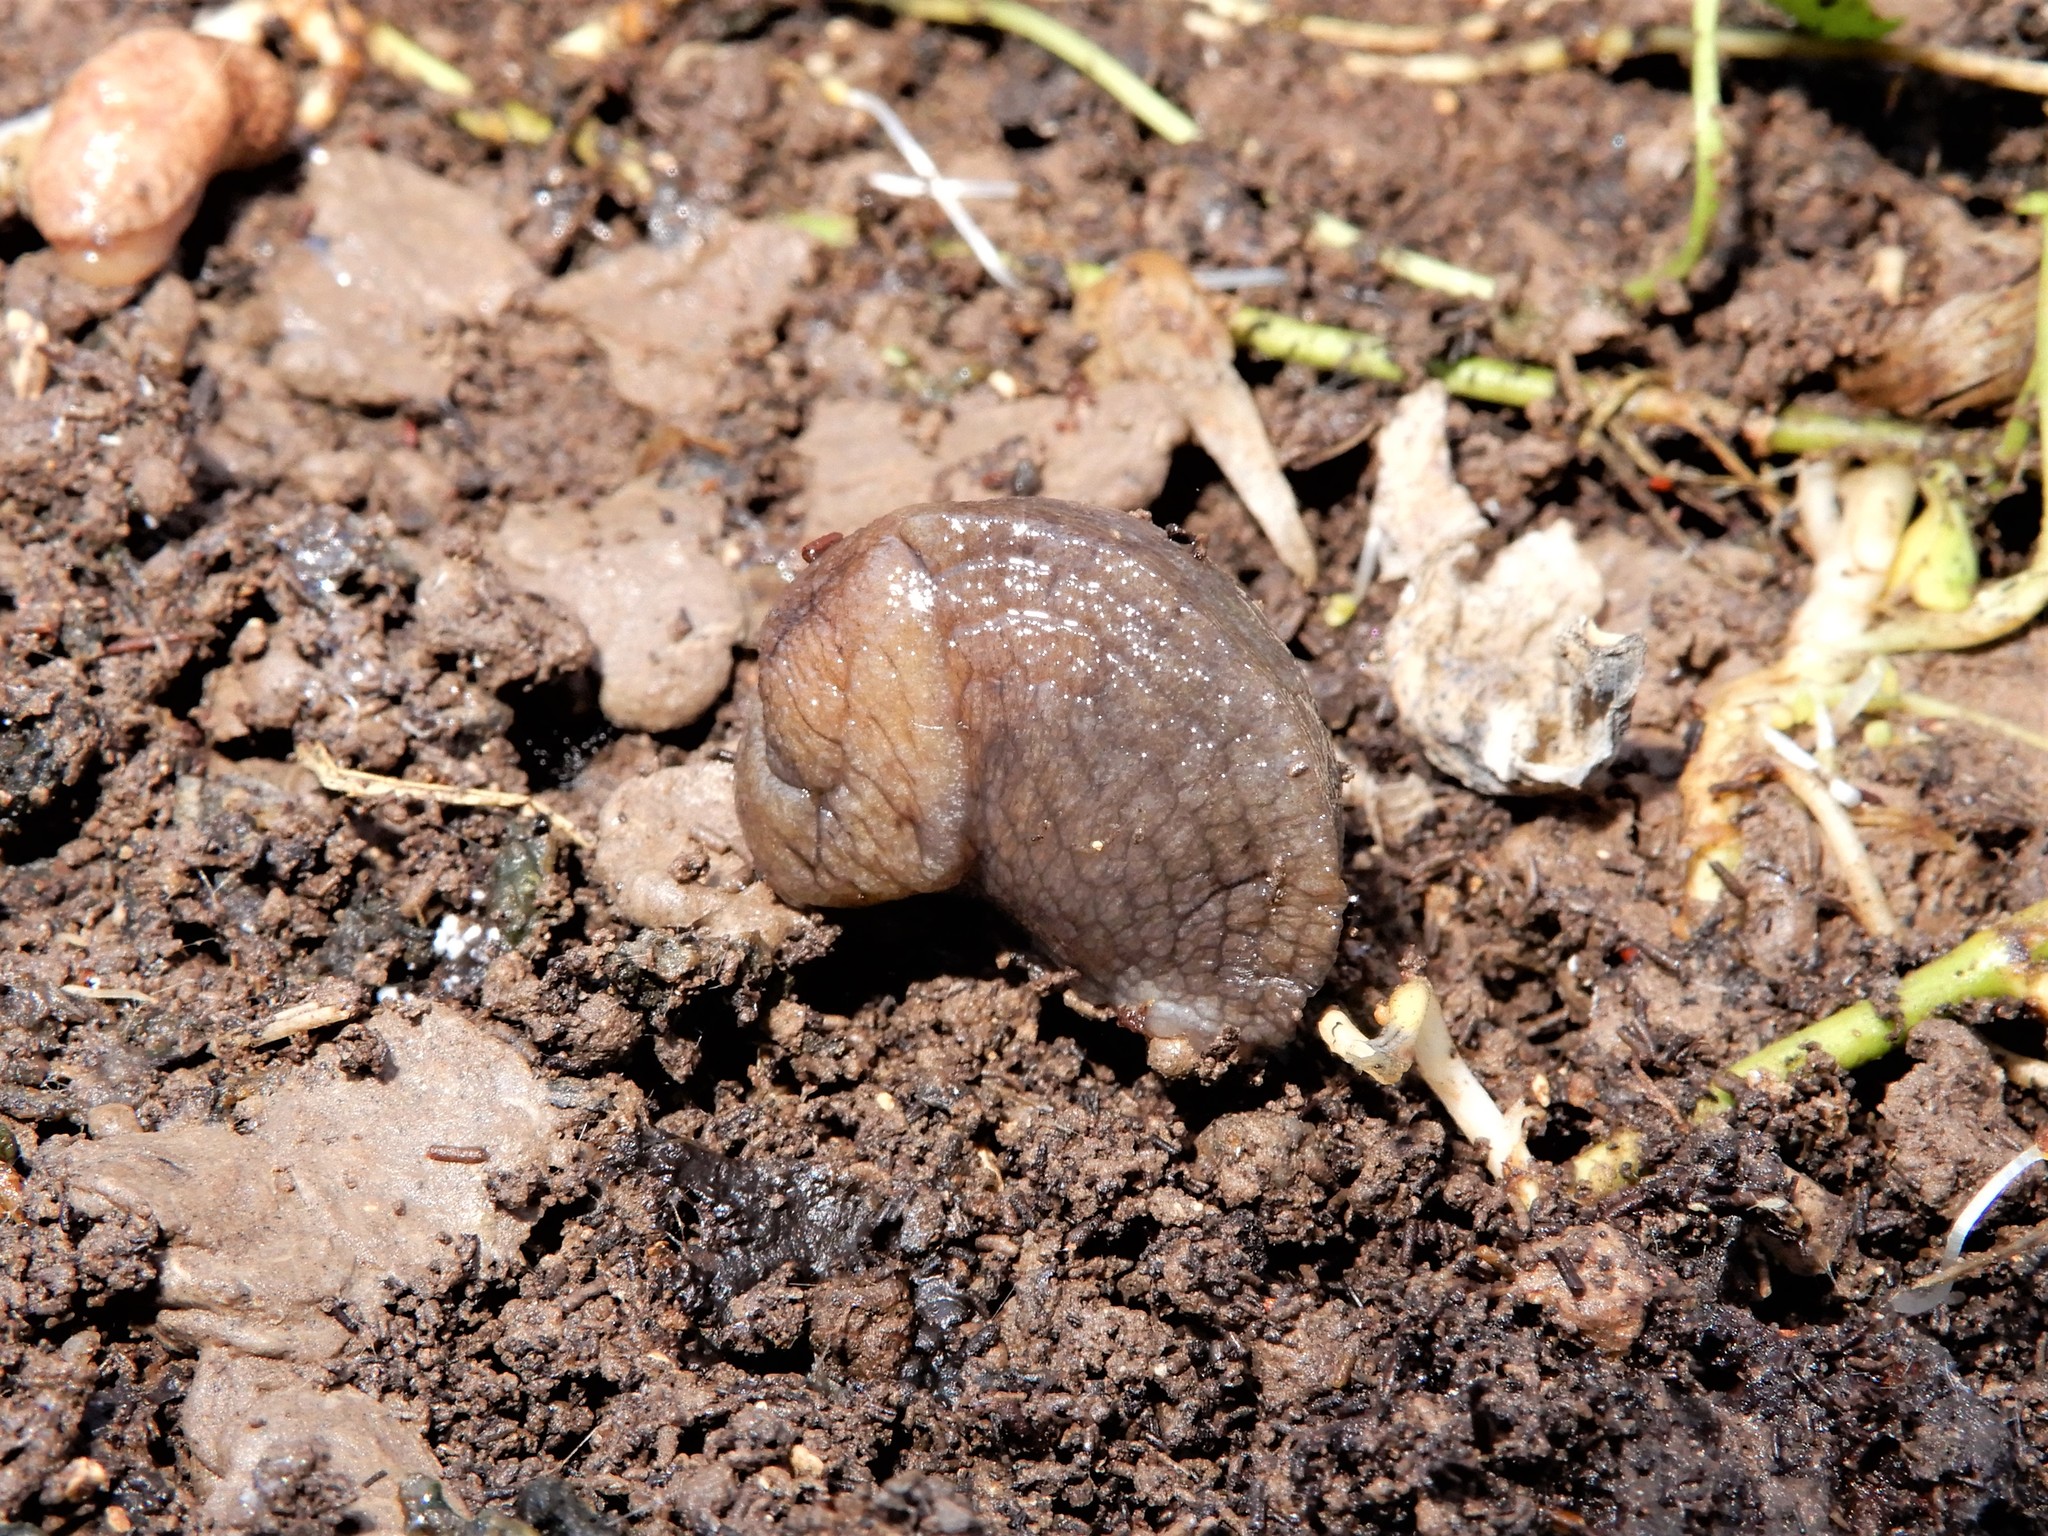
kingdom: Animalia
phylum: Mollusca
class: Gastropoda
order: Stylommatophora
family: Milacidae
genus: Milax
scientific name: Milax gagates
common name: Greenhouse slug
